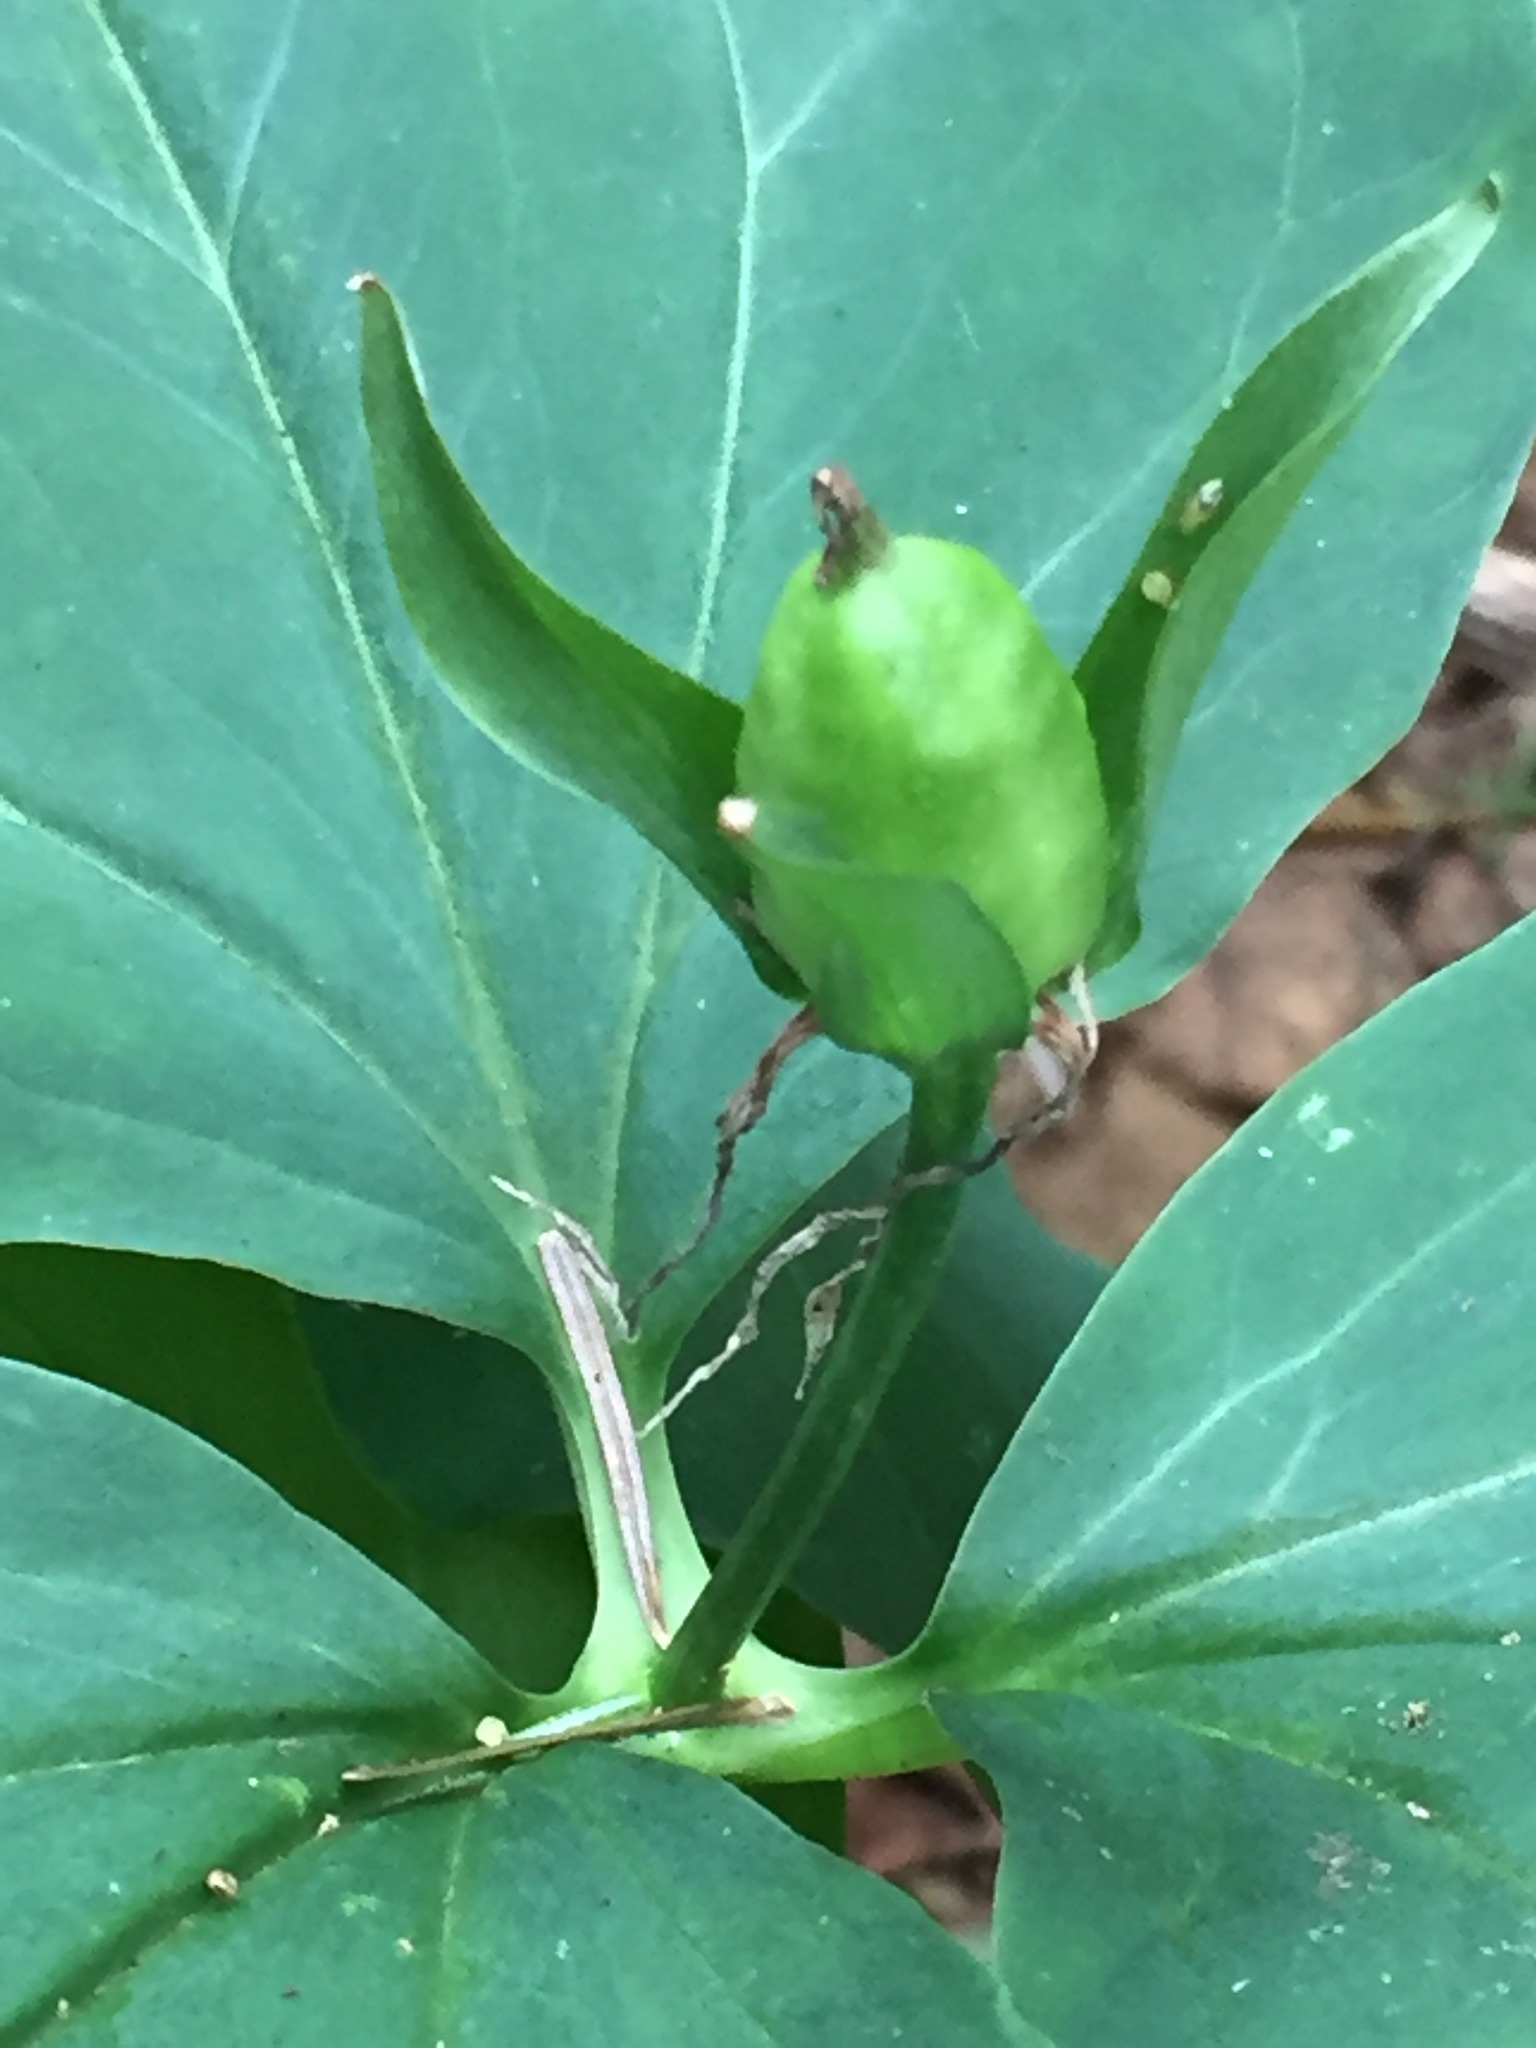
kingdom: Plantae
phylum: Tracheophyta
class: Liliopsida
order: Liliales
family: Melanthiaceae
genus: Trillium
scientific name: Trillium undulatum
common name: Paint trillium
